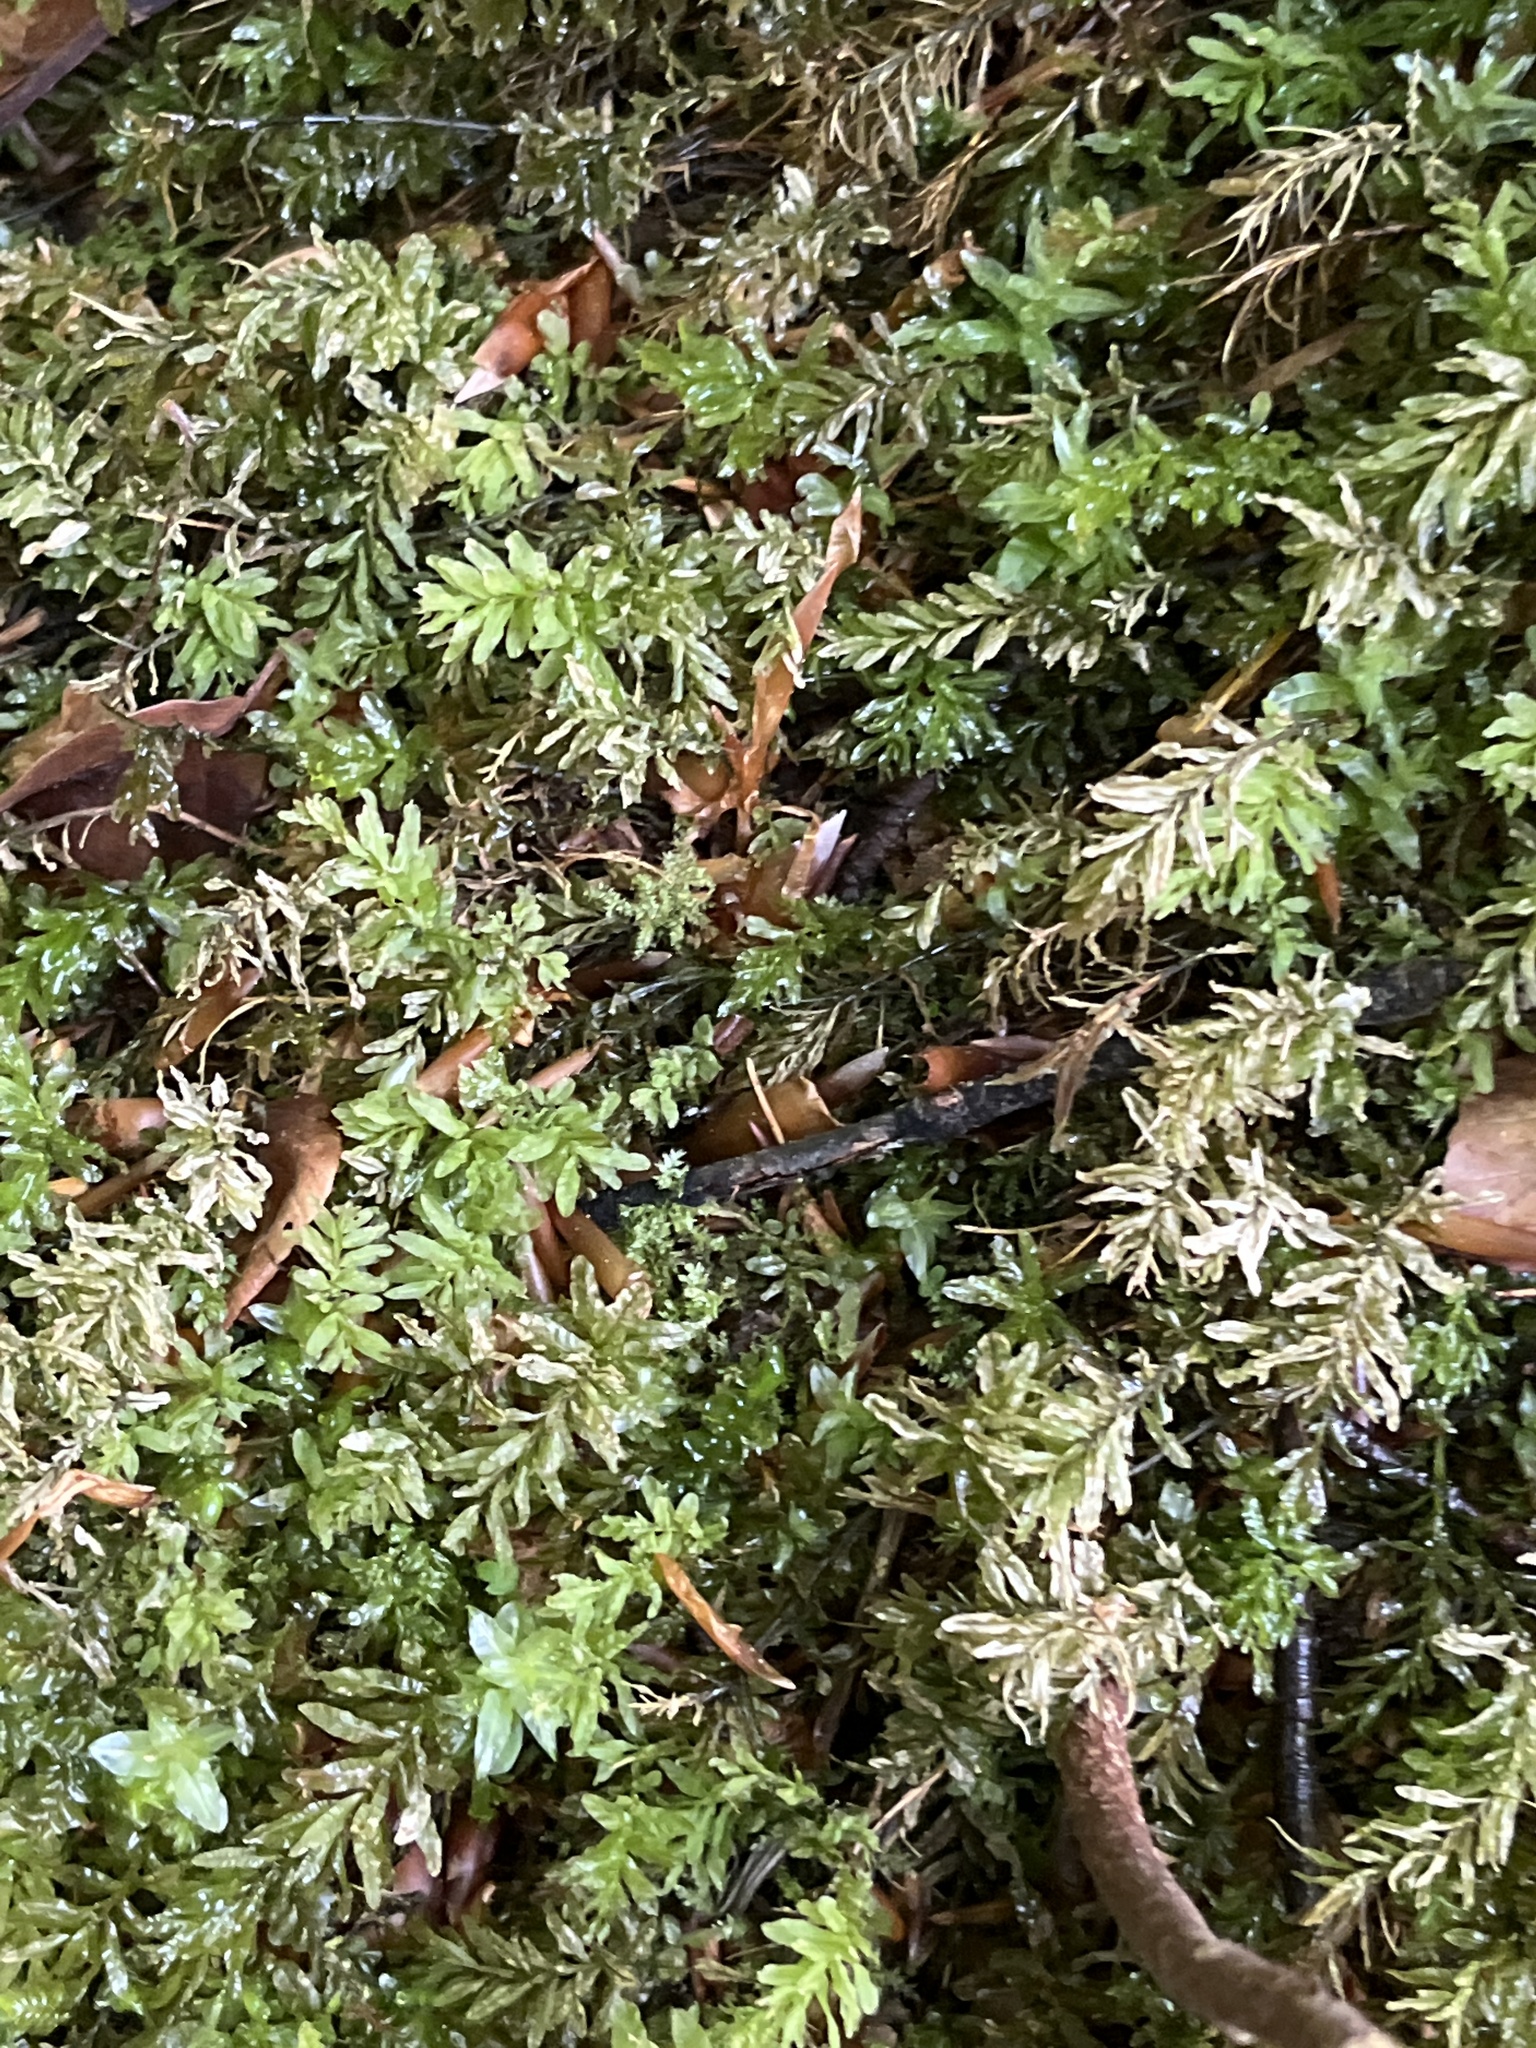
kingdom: Plantae
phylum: Bryophyta
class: Bryopsida
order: Bryales
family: Mniaceae
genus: Plagiomnium
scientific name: Plagiomnium undulatum
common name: Hart's-tongue thyme-moss
